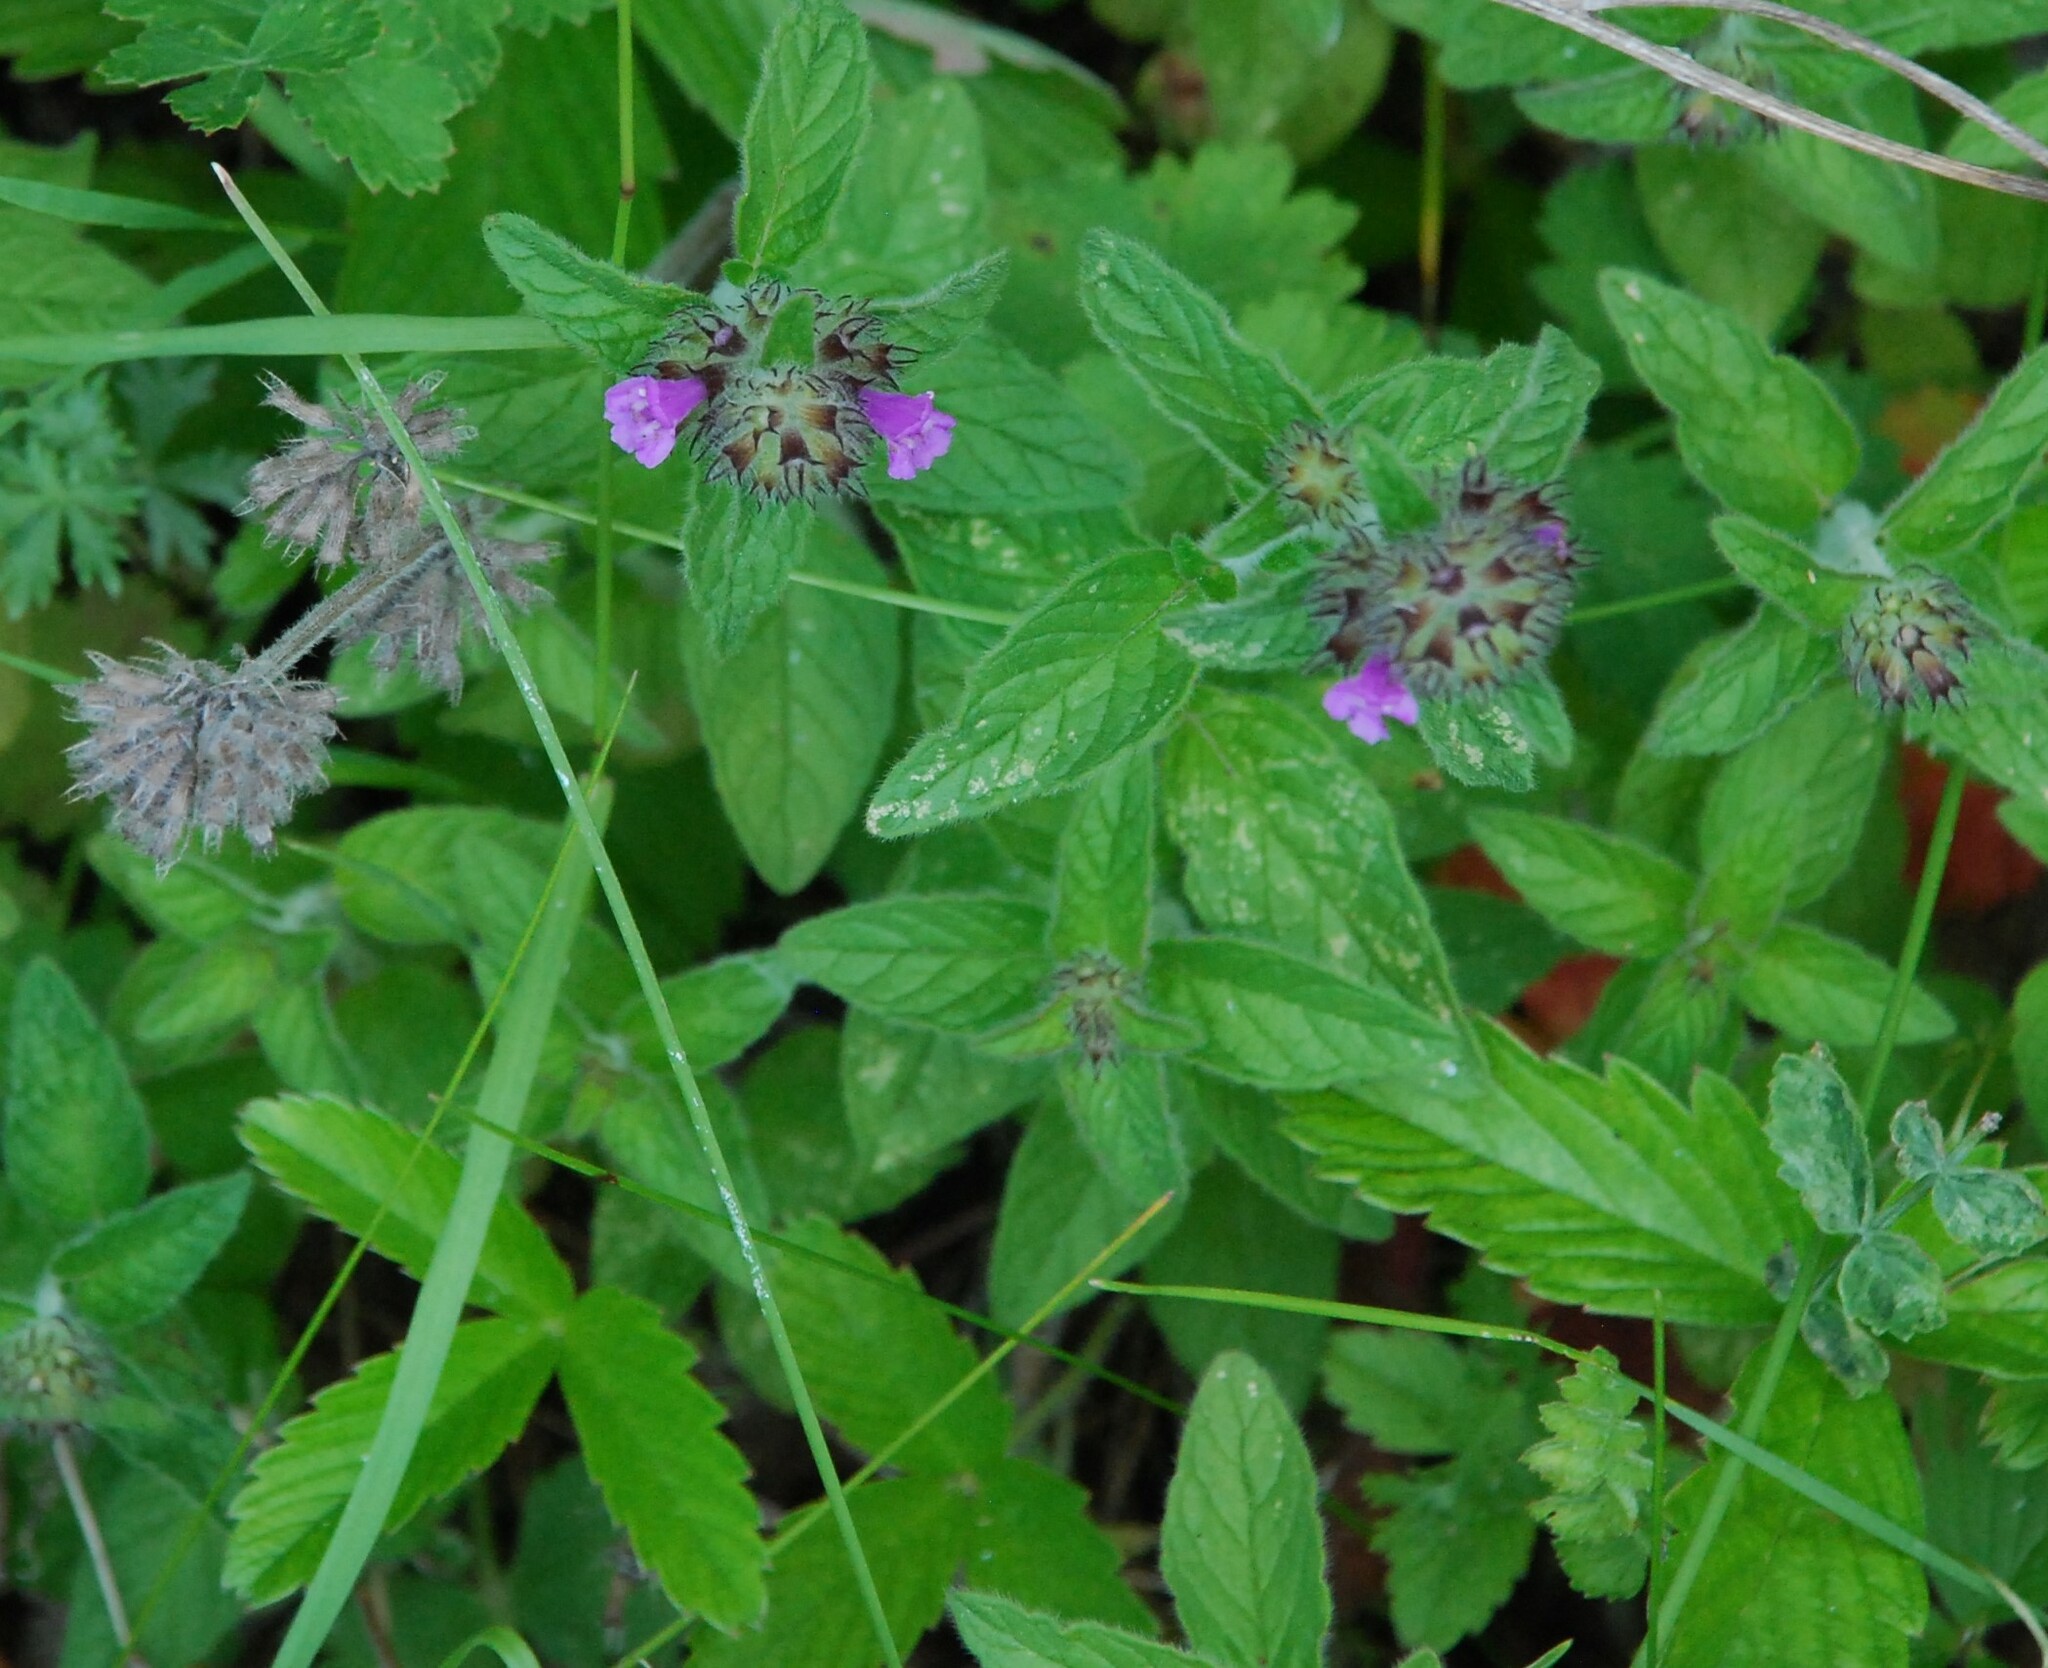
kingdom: Plantae
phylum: Tracheophyta
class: Magnoliopsida
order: Lamiales
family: Lamiaceae
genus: Clinopodium
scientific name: Clinopodium vulgare
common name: Wild basil
